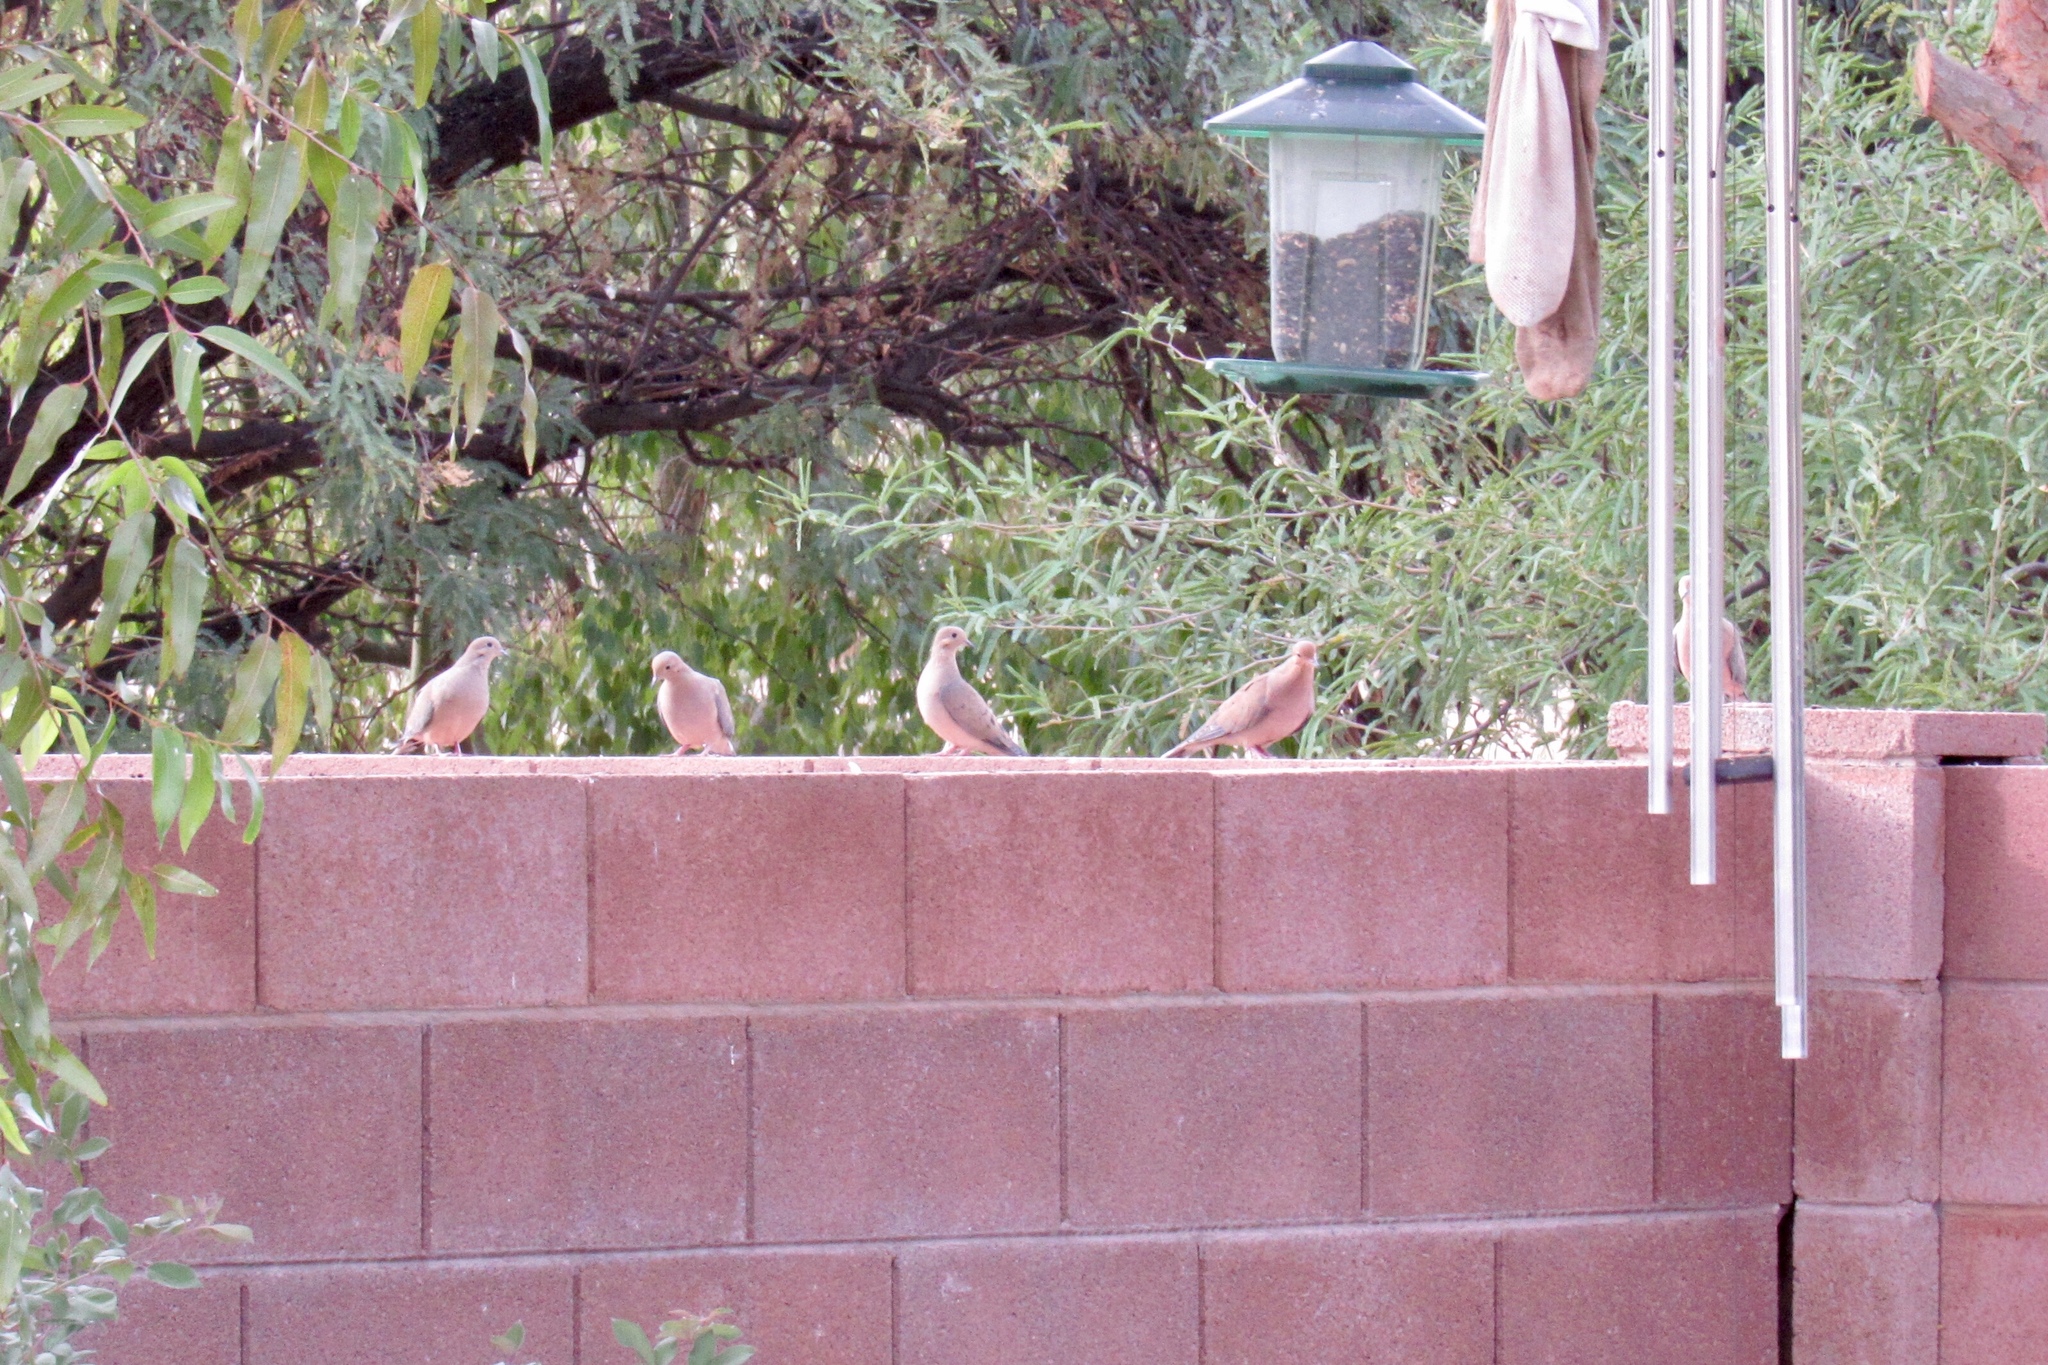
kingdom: Animalia
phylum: Chordata
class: Aves
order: Columbiformes
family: Columbidae
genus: Zenaida
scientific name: Zenaida macroura
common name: Mourning dove
